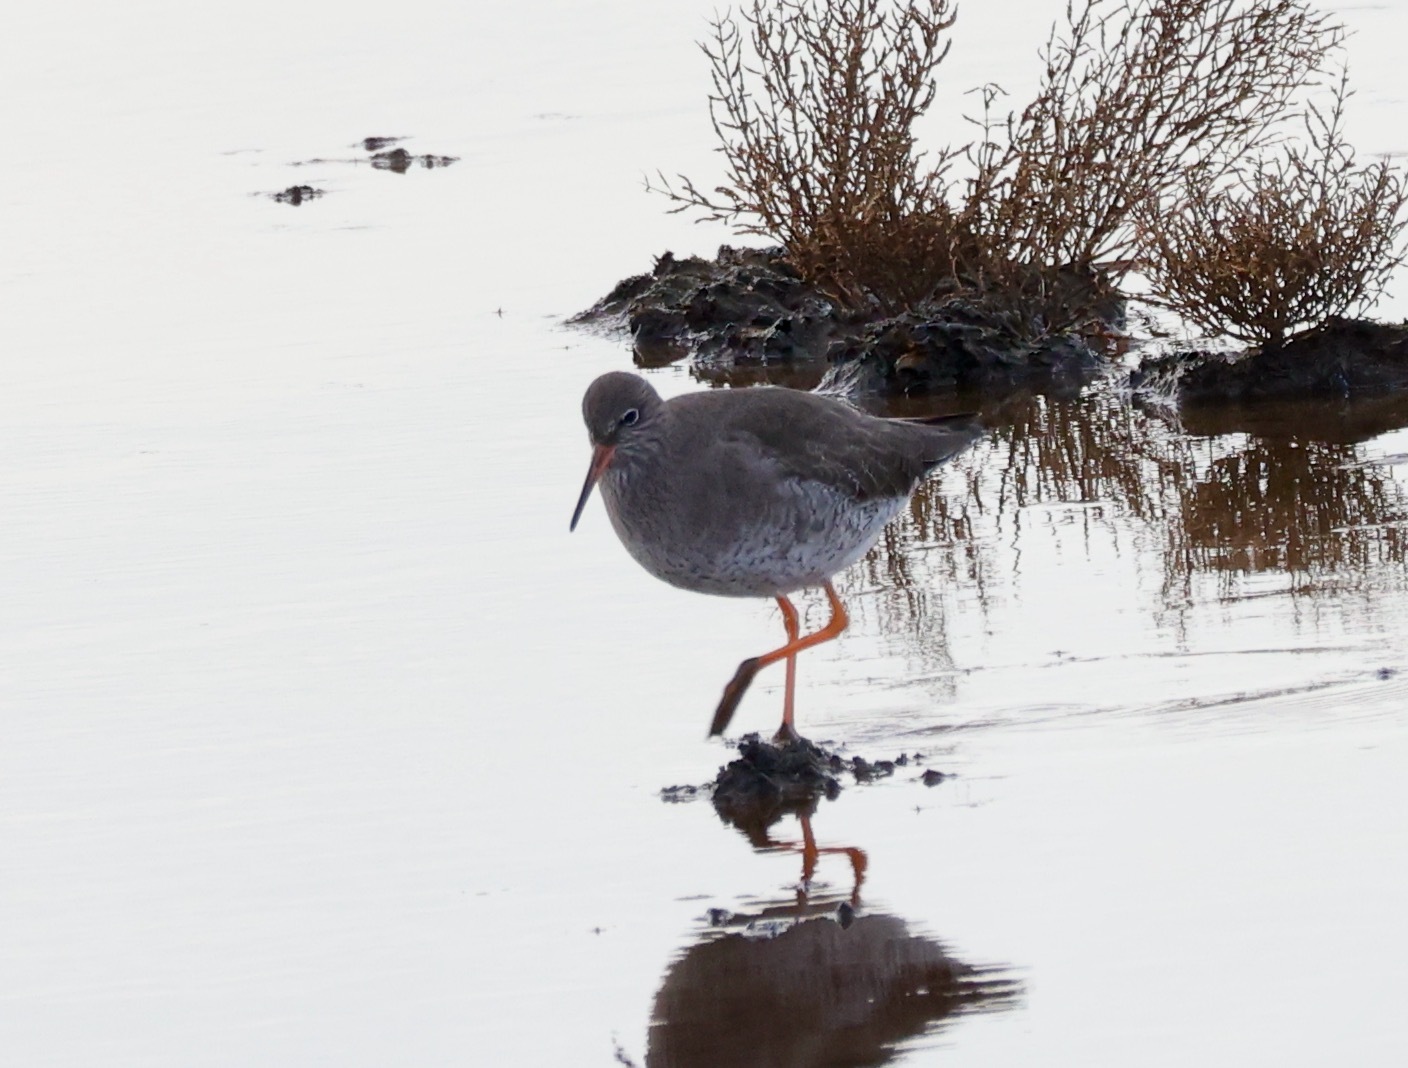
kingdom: Animalia
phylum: Chordata
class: Aves
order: Charadriiformes
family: Scolopacidae
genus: Tringa
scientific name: Tringa totanus
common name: Common redshank
